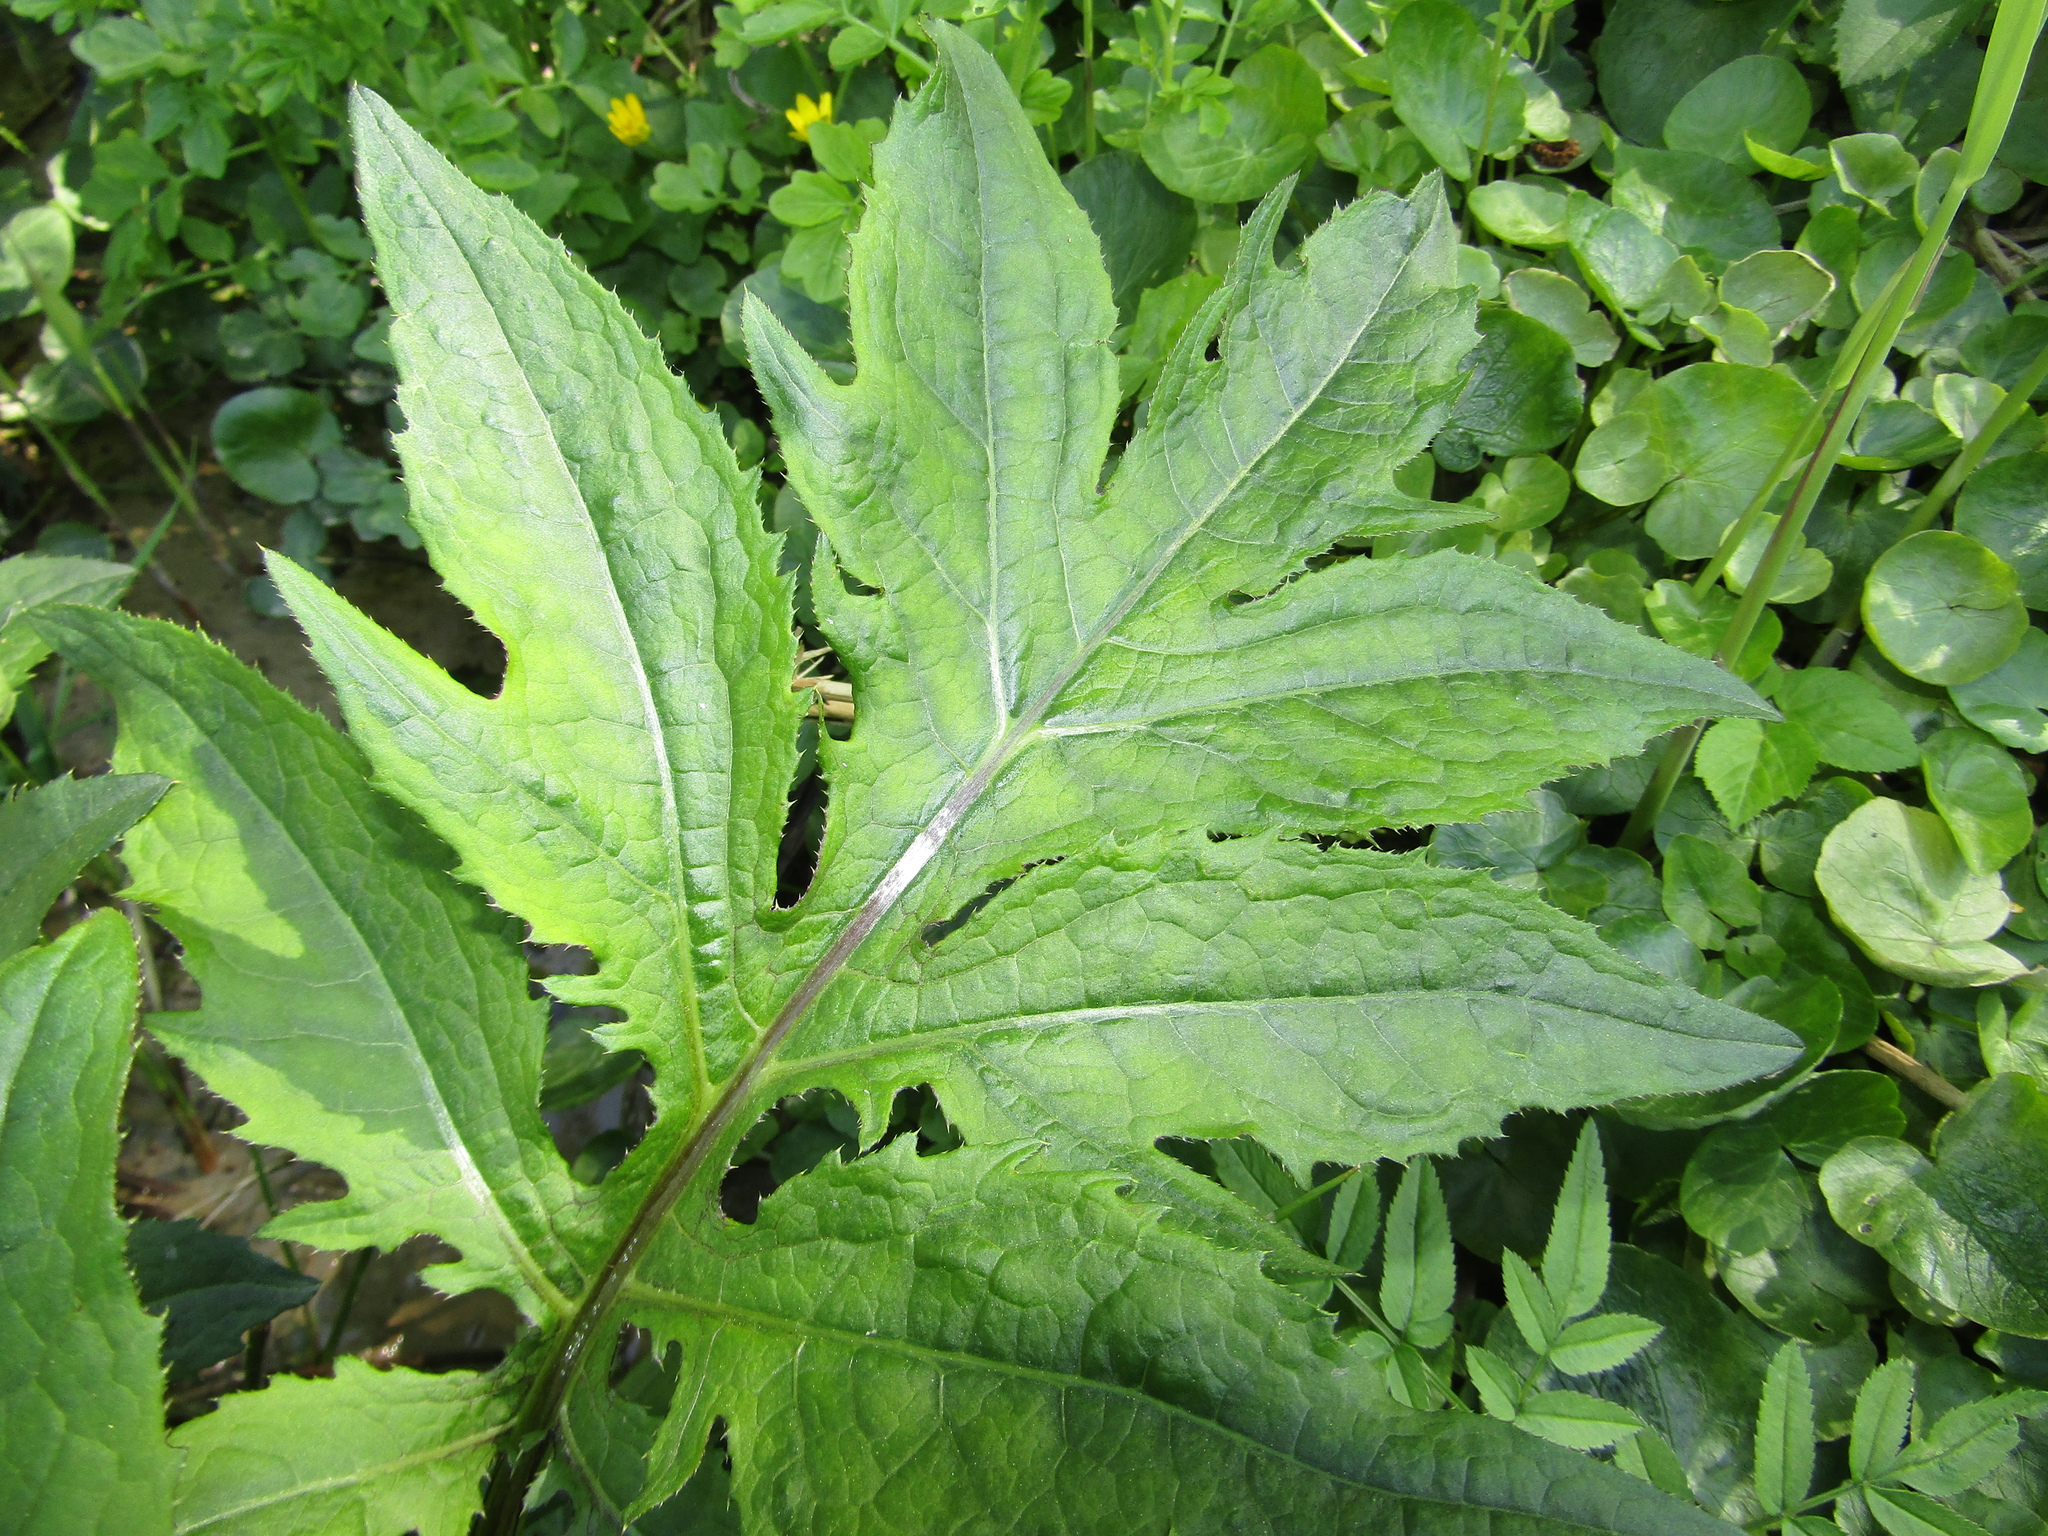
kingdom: Plantae
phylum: Tracheophyta
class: Magnoliopsida
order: Asterales
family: Asteraceae
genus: Cirsium
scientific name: Cirsium oleraceum
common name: Cabbage thistle
